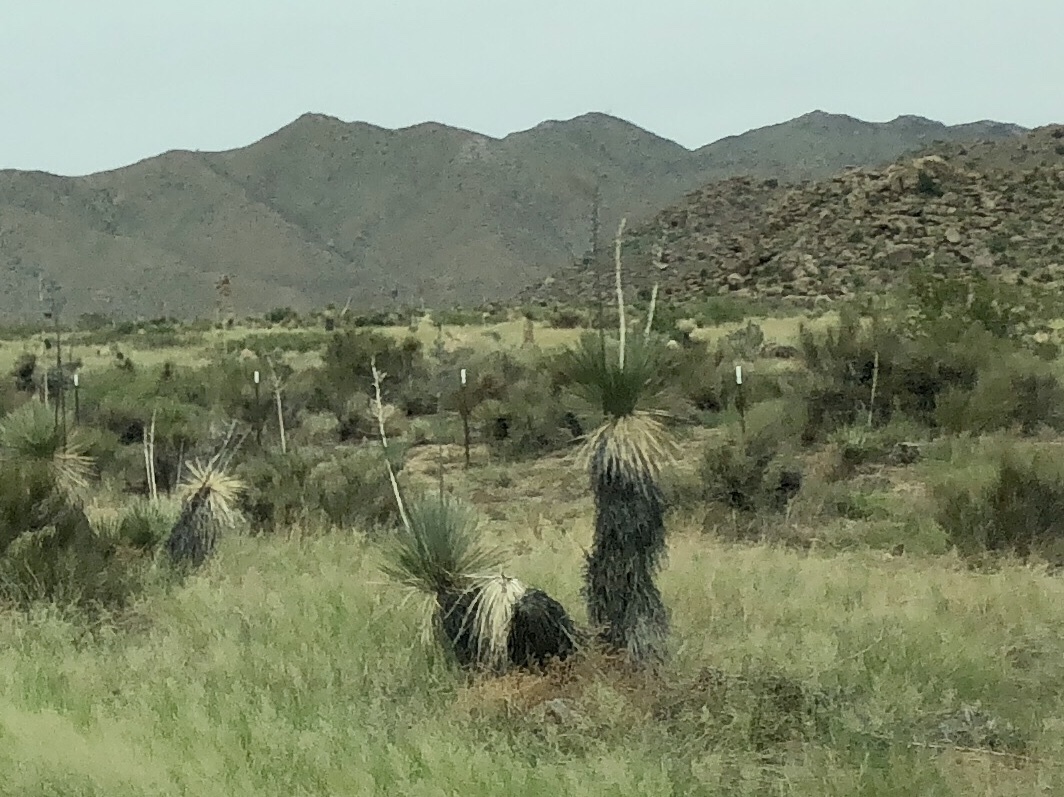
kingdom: Plantae
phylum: Tracheophyta
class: Liliopsida
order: Asparagales
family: Asparagaceae
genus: Yucca
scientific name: Yucca elata
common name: Palmella
